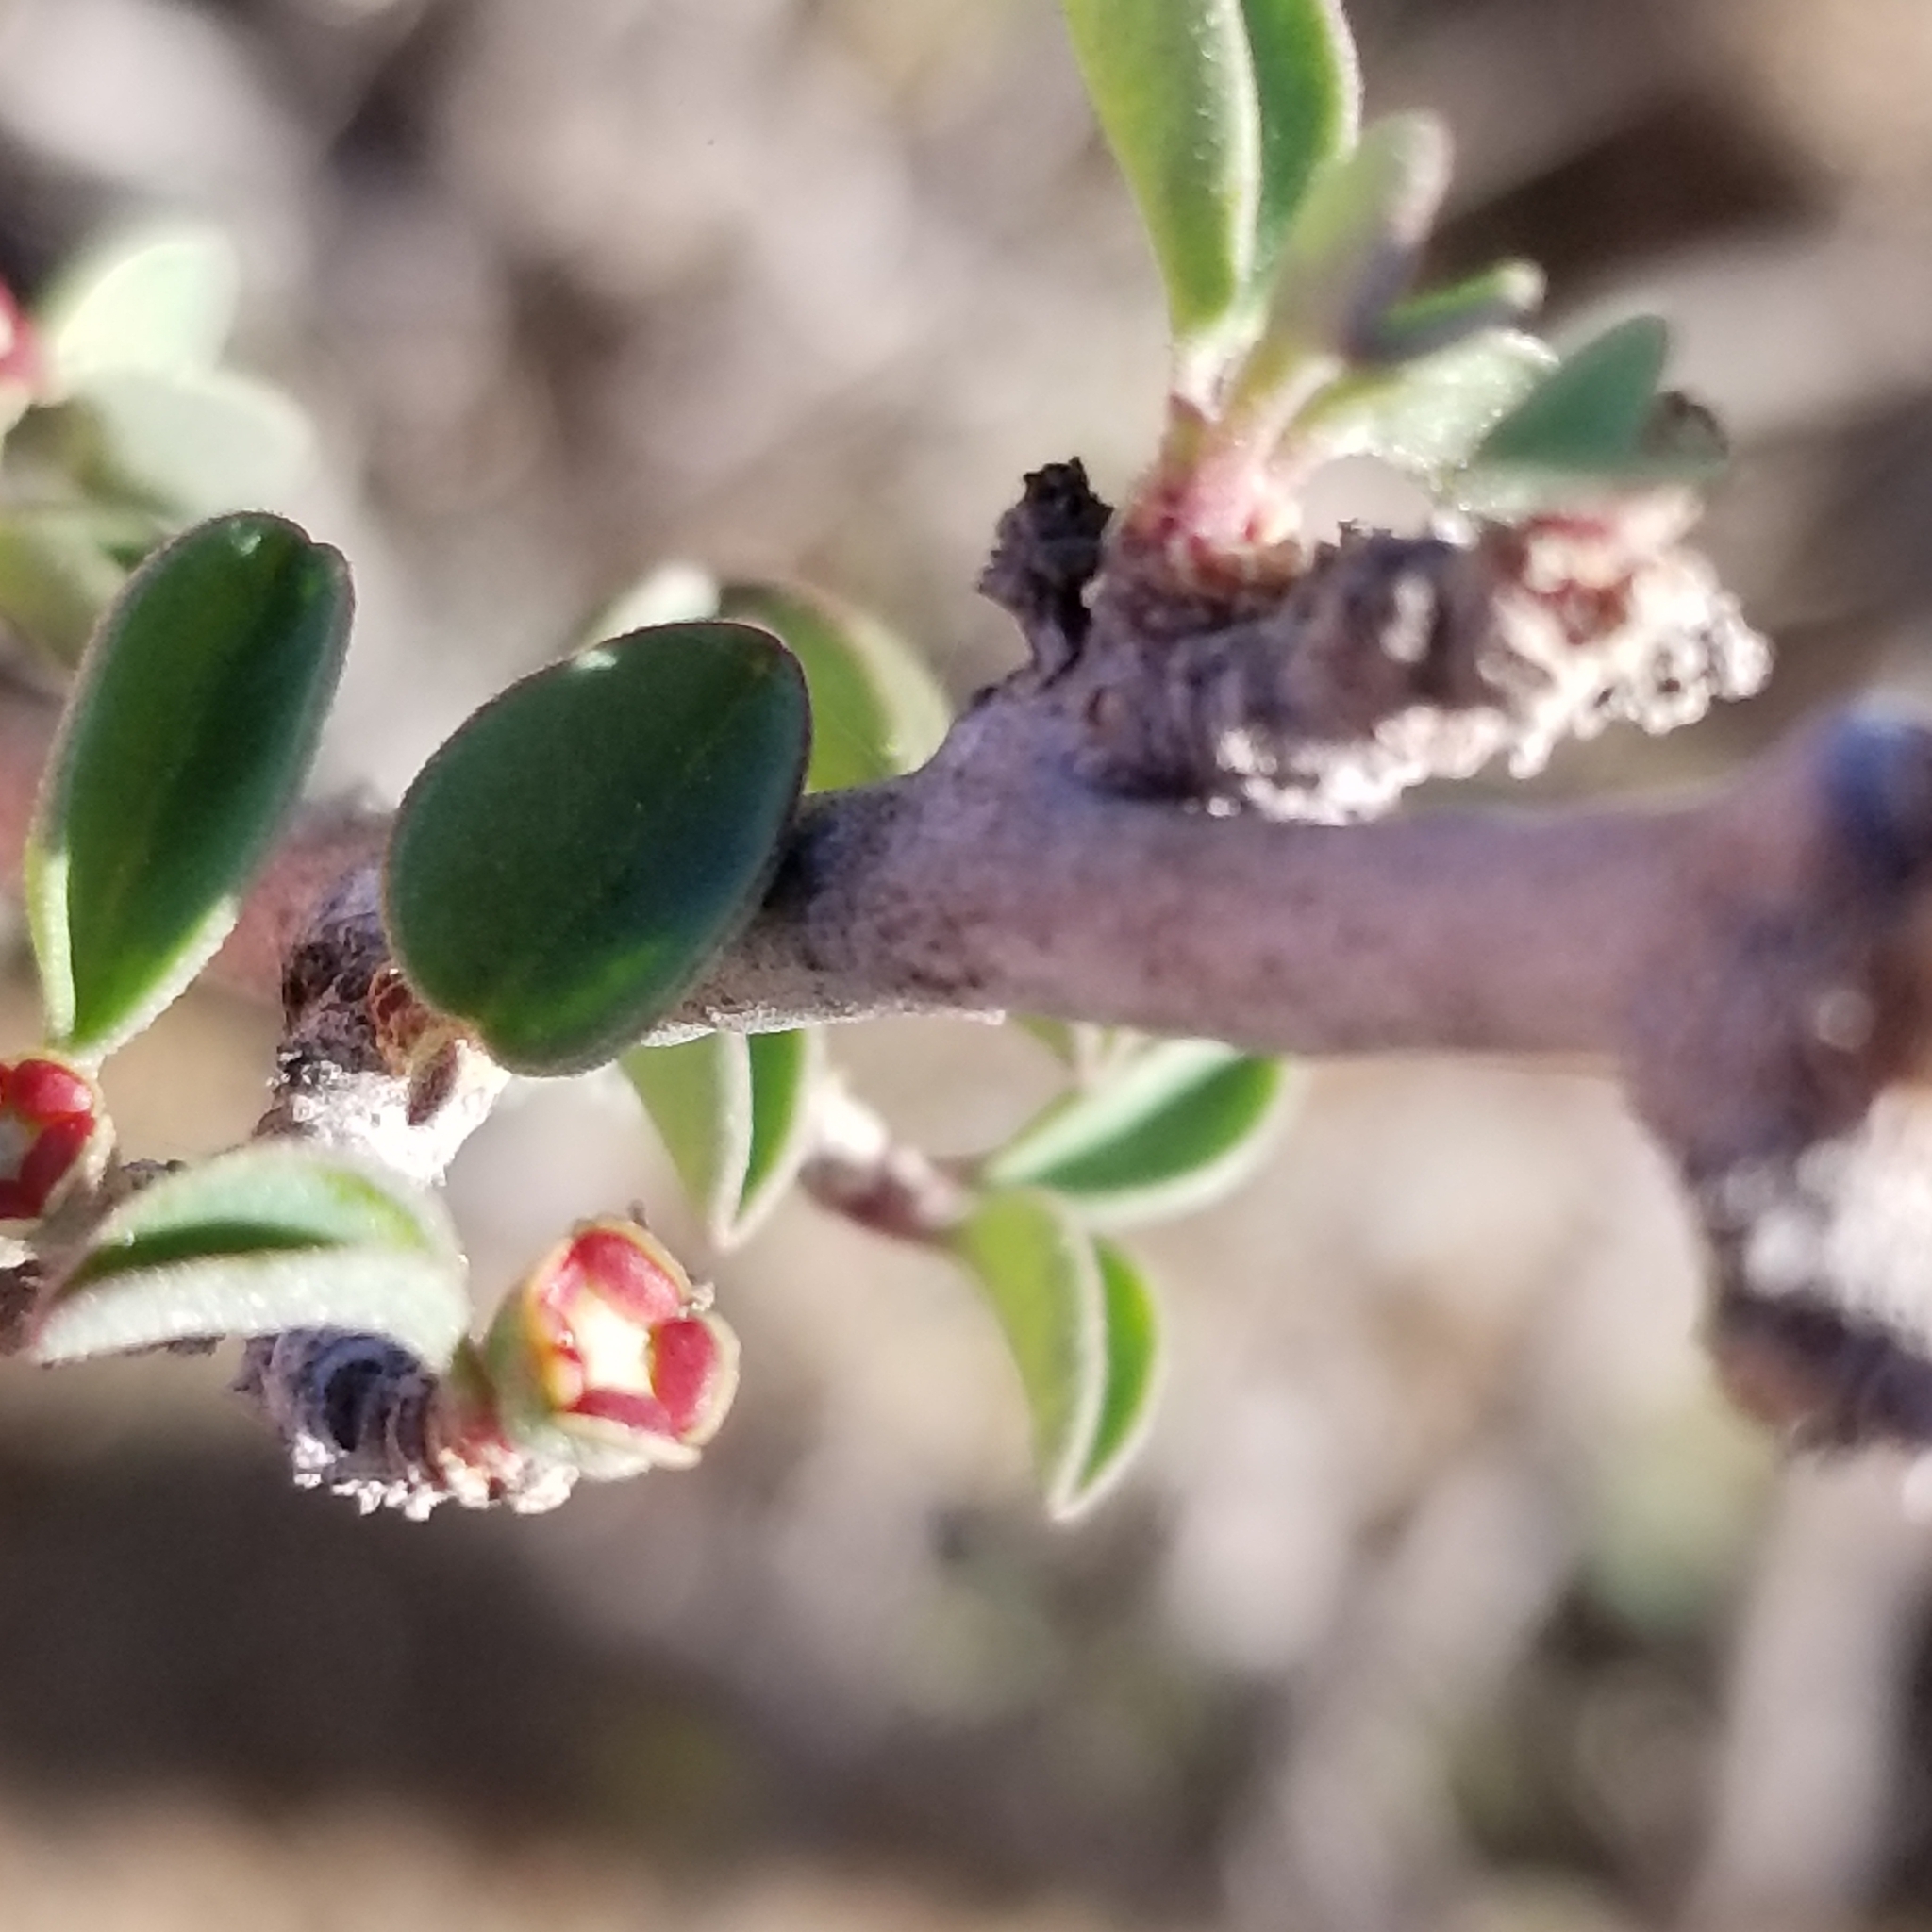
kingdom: Plantae
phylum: Tracheophyta
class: Magnoliopsida
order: Malpighiales
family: Euphorbiaceae
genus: Euphorbia
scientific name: Euphorbia misera
